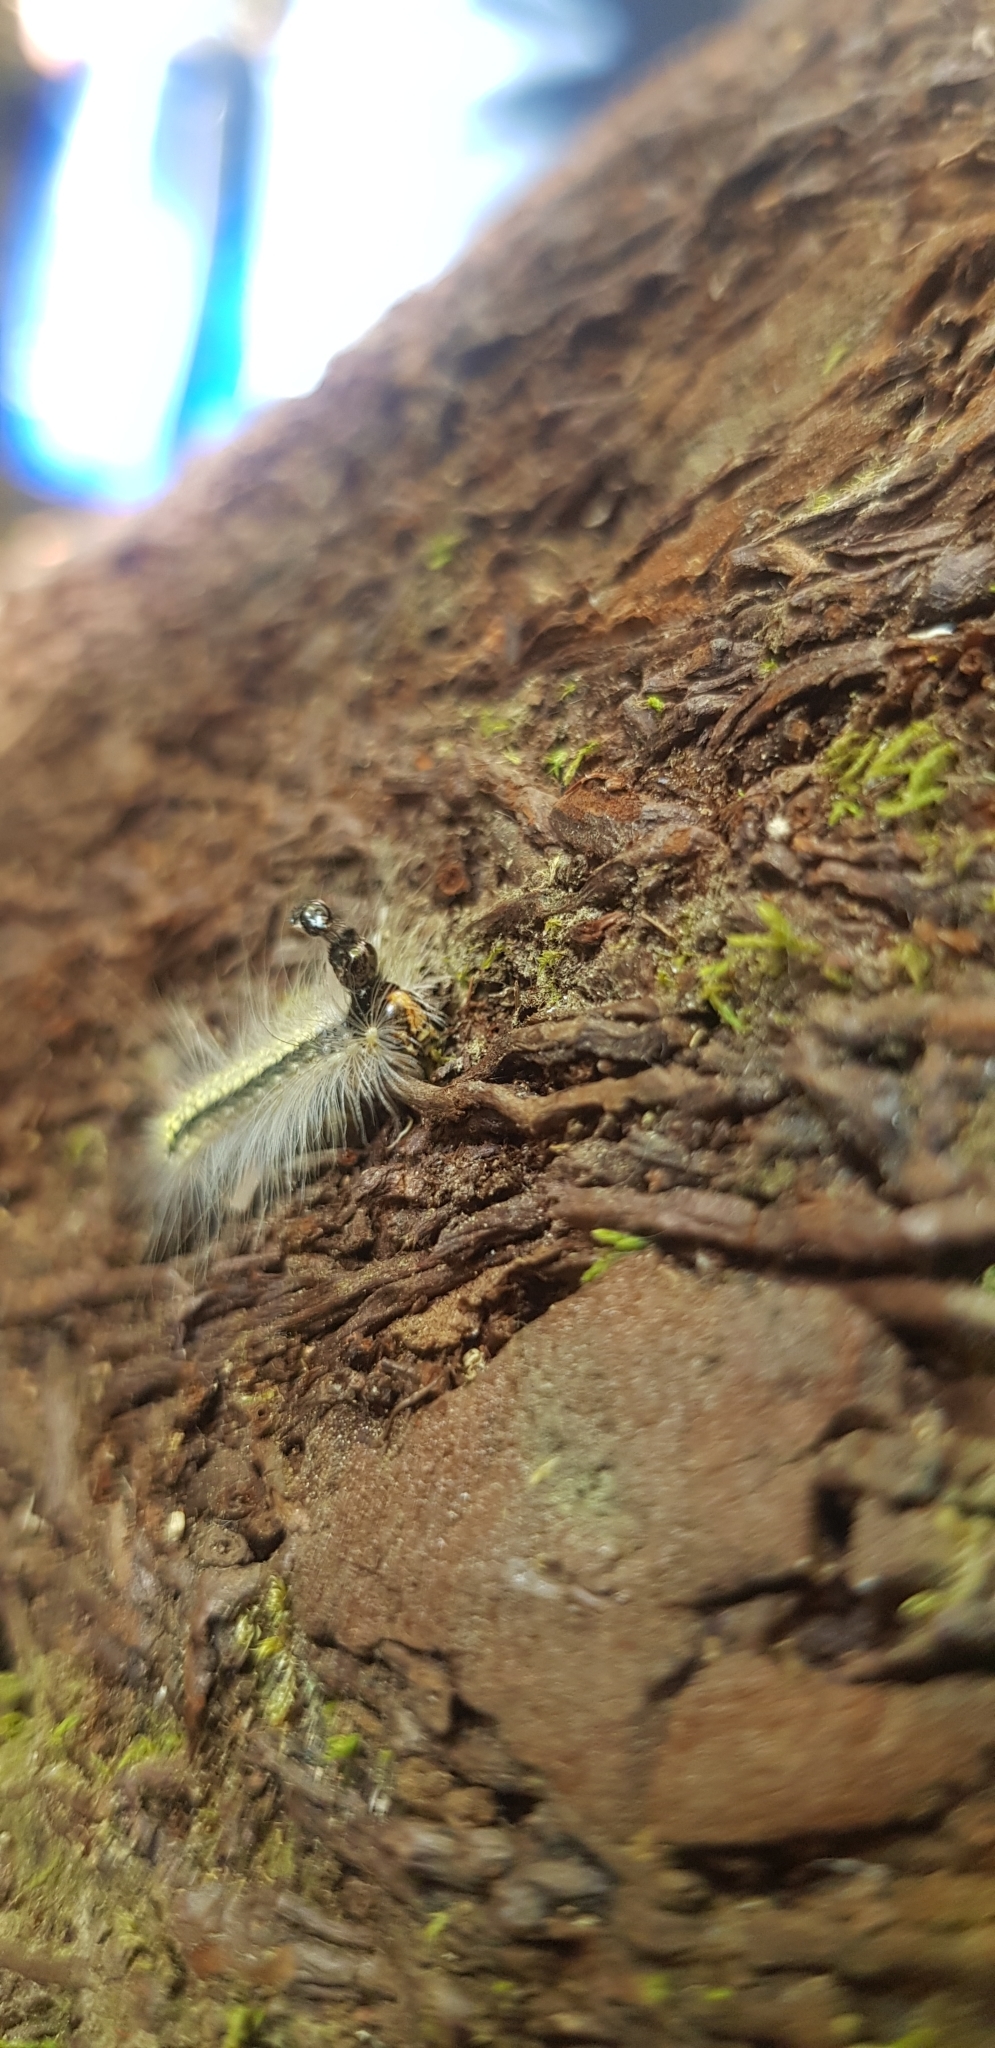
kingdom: Animalia
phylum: Arthropoda
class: Insecta
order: Lepidoptera
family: Nolidae
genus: Uraba
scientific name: Uraba lugens
